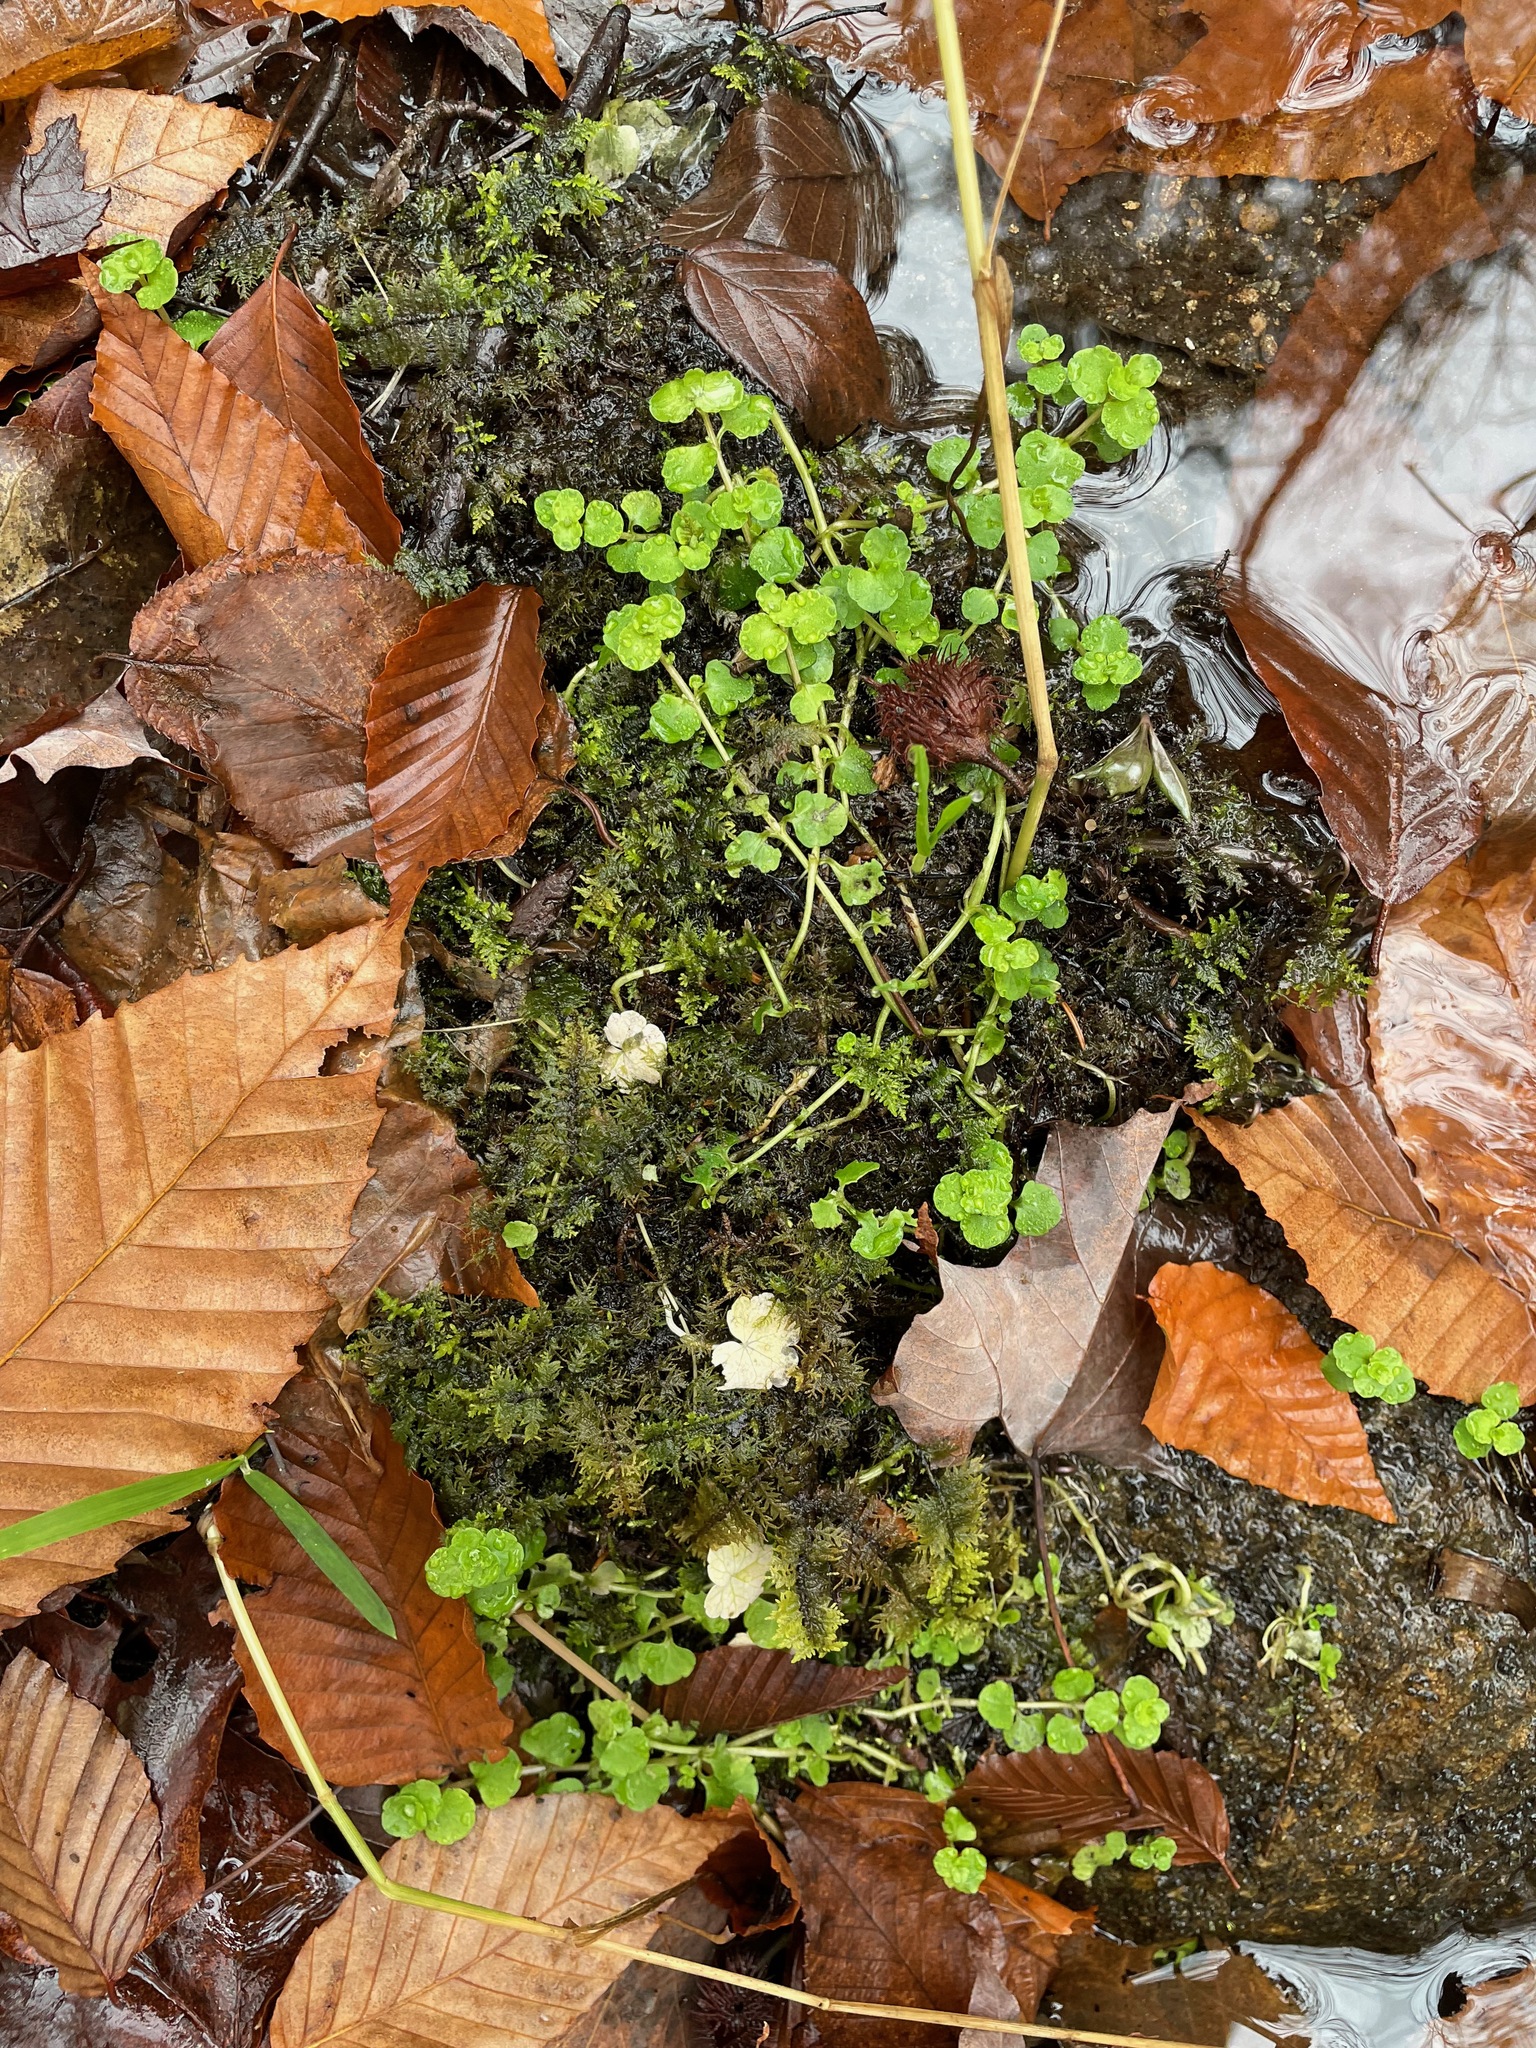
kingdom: Plantae
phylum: Tracheophyta
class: Magnoliopsida
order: Saxifragales
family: Saxifragaceae
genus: Chrysosplenium
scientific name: Chrysosplenium americanum
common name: American golden-saxifrage
